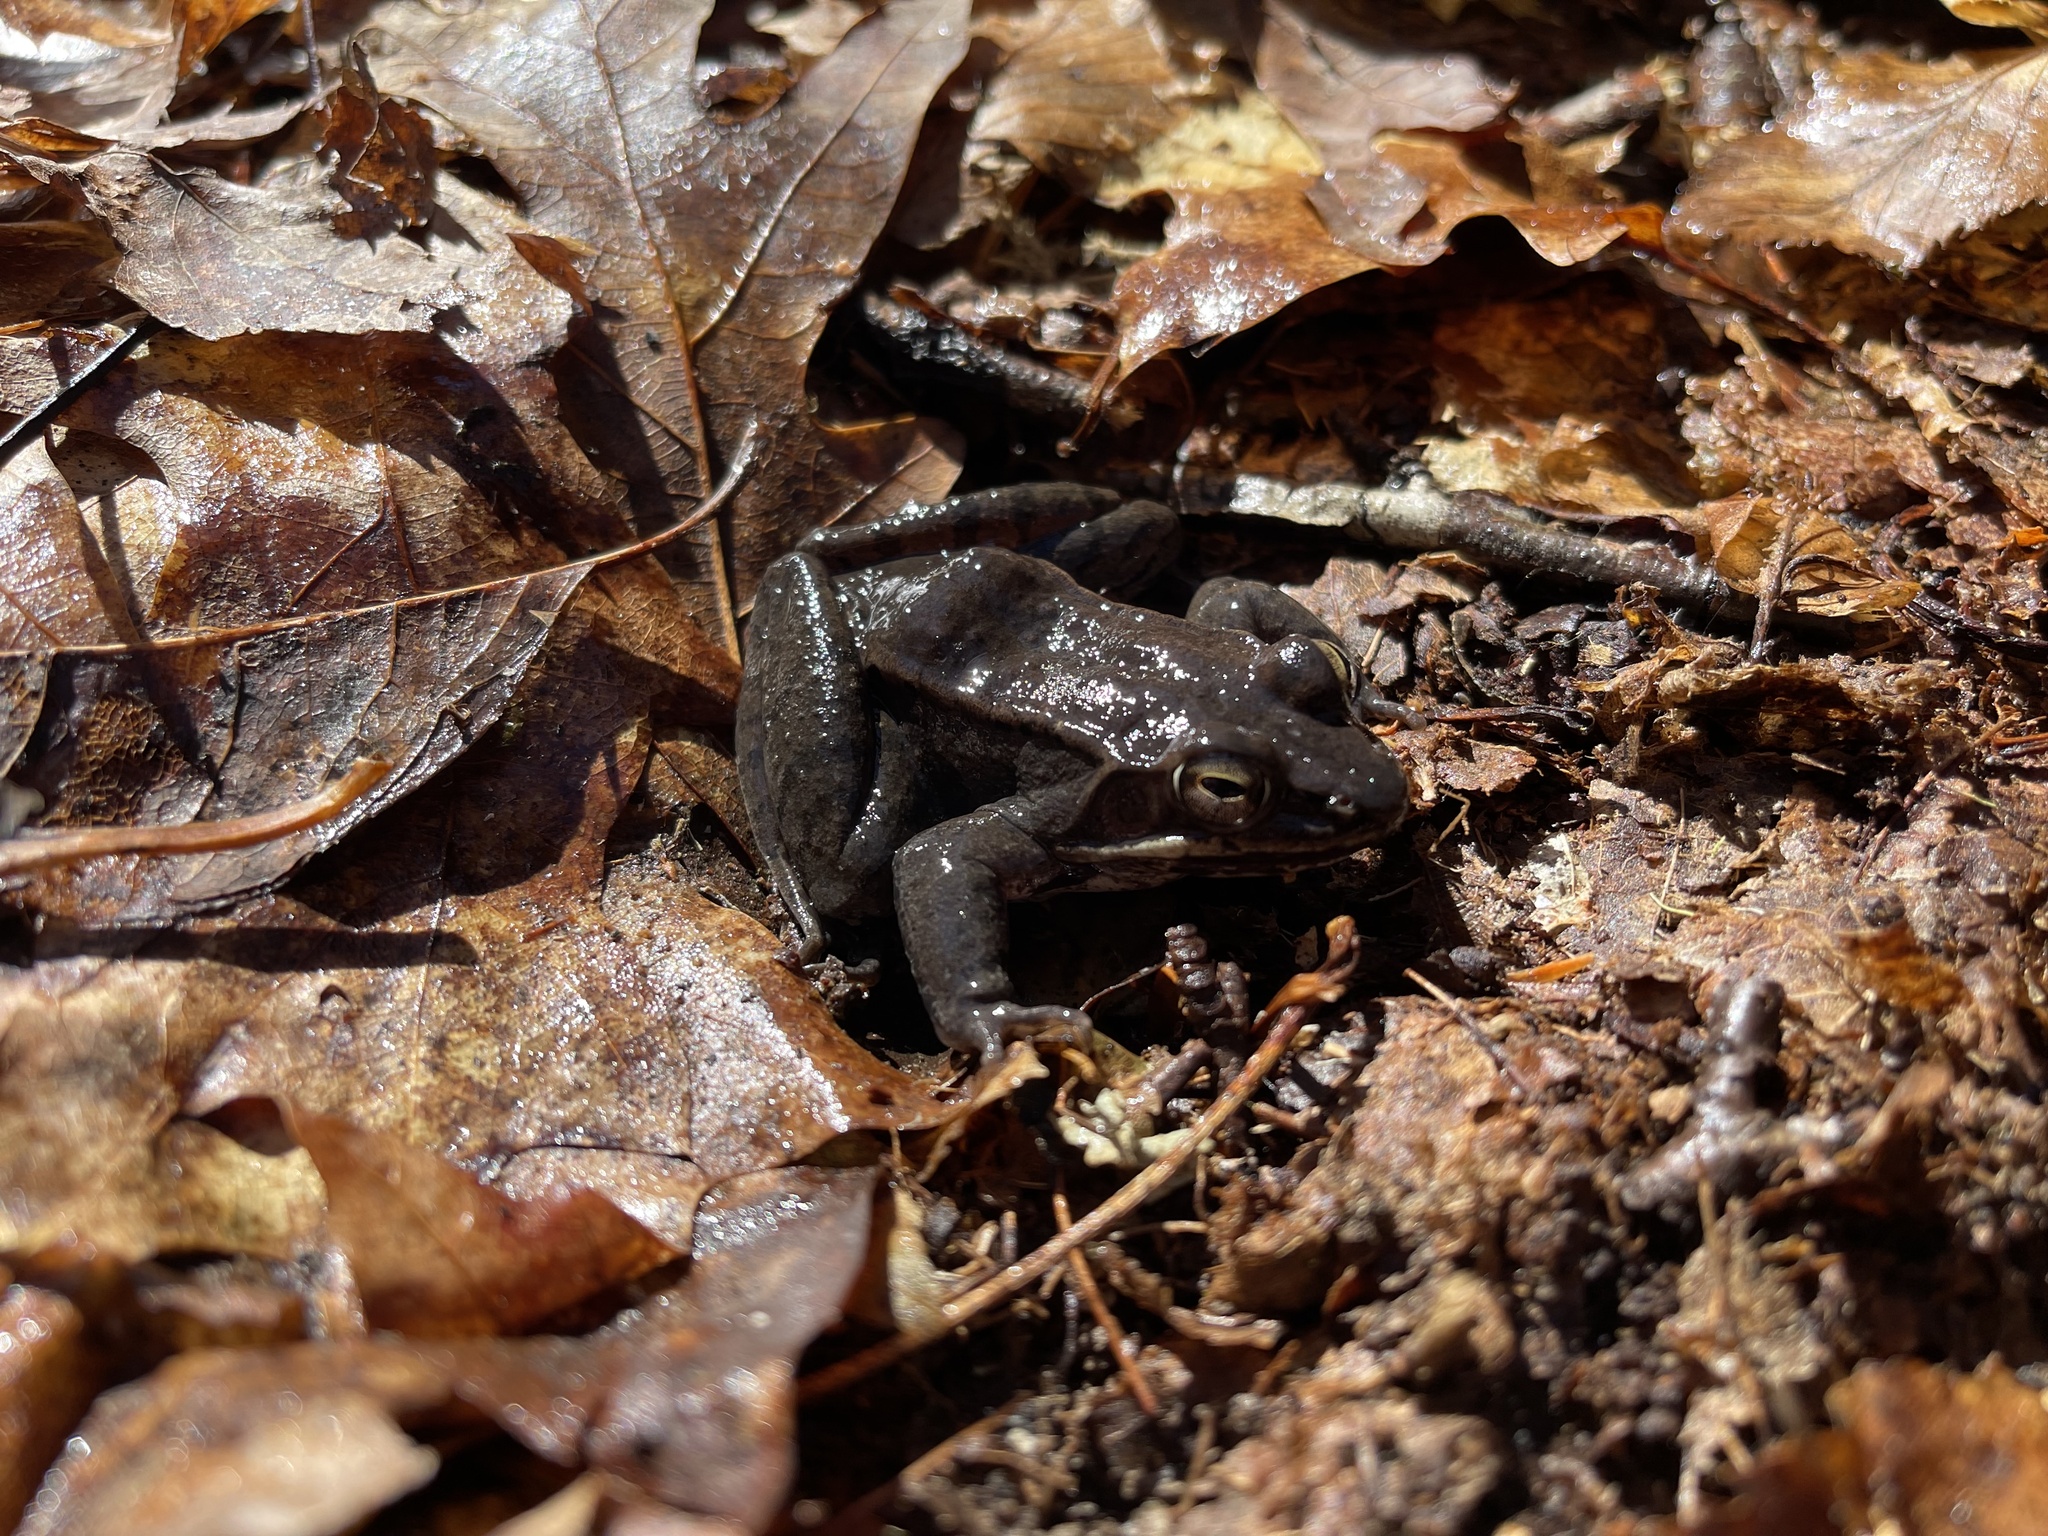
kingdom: Animalia
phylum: Chordata
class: Amphibia
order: Anura
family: Ranidae
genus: Lithobates
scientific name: Lithobates sylvaticus
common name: Wood frog
